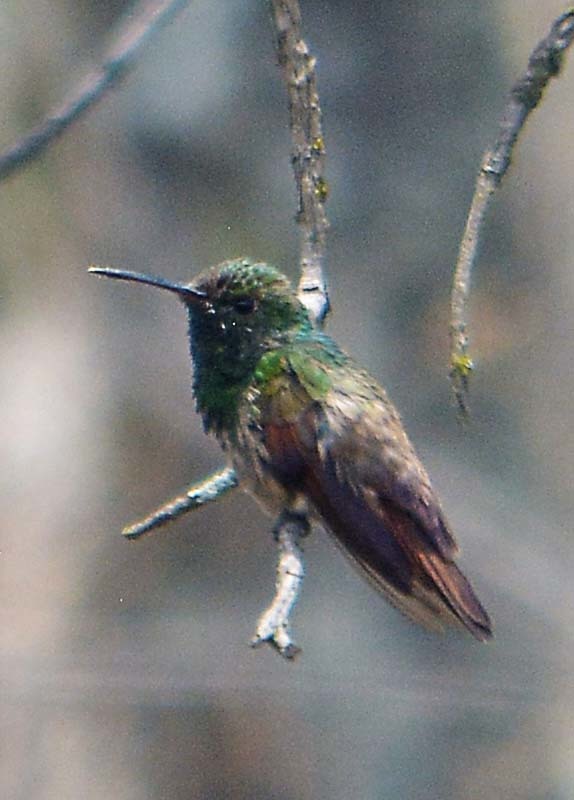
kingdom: Animalia
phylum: Chordata
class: Aves
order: Apodiformes
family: Trochilidae
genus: Saucerottia
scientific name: Saucerottia beryllina
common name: Berylline hummingbird
